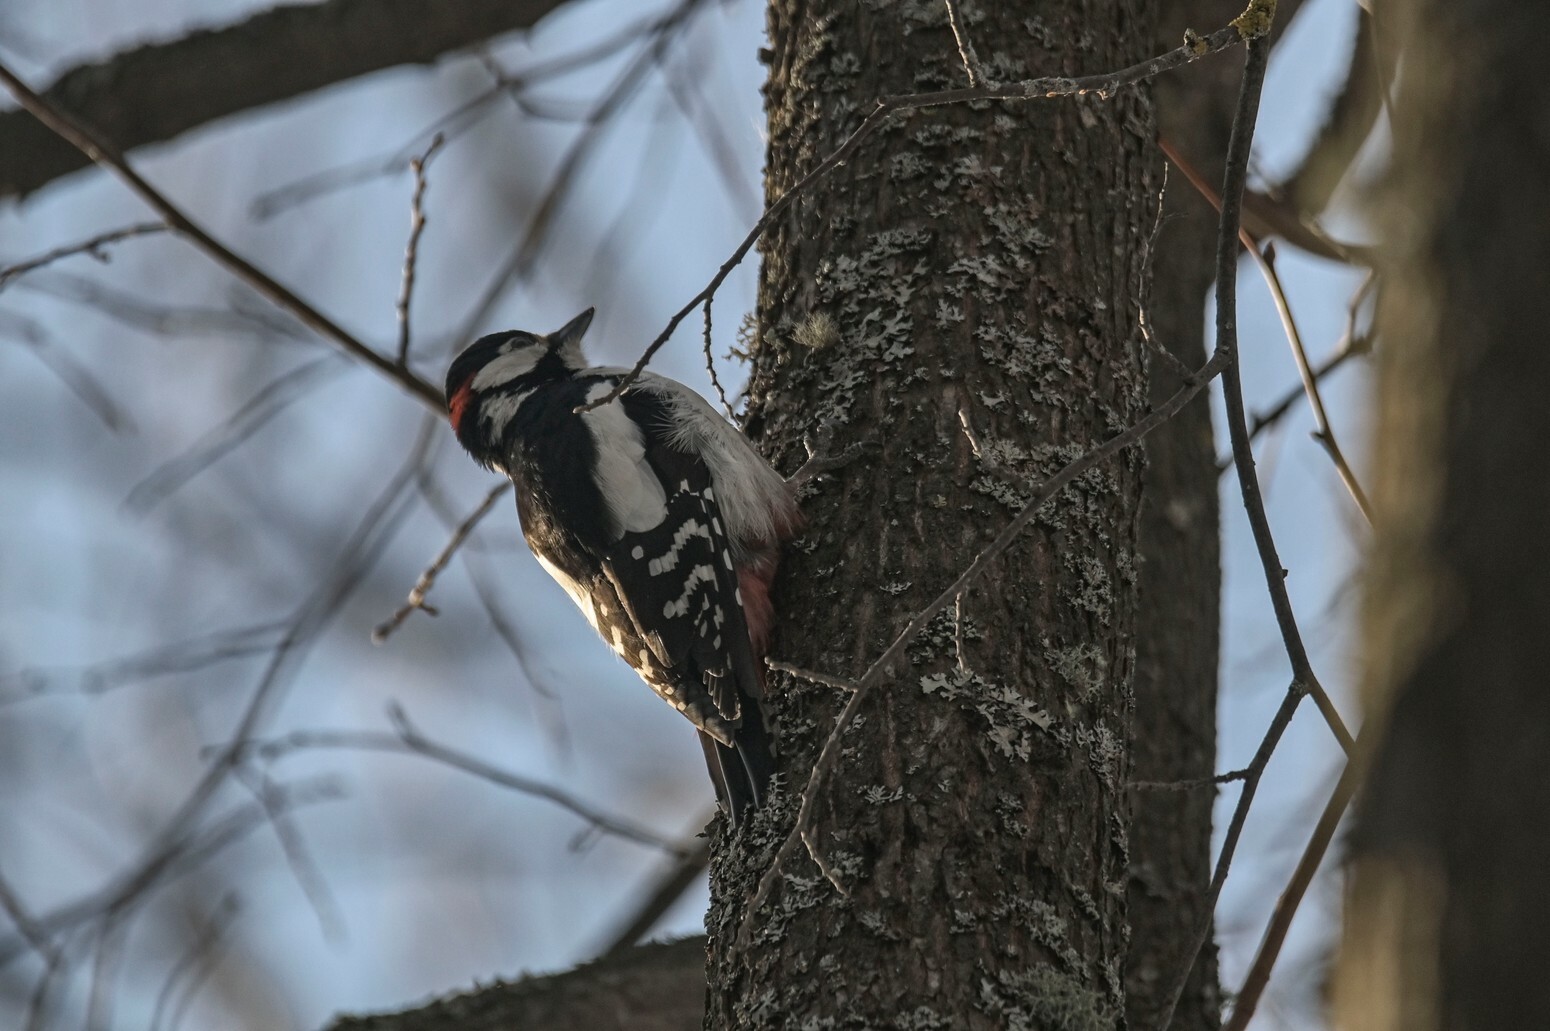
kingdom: Animalia
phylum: Chordata
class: Aves
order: Piciformes
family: Picidae
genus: Dendrocopos
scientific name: Dendrocopos major
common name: Great spotted woodpecker
